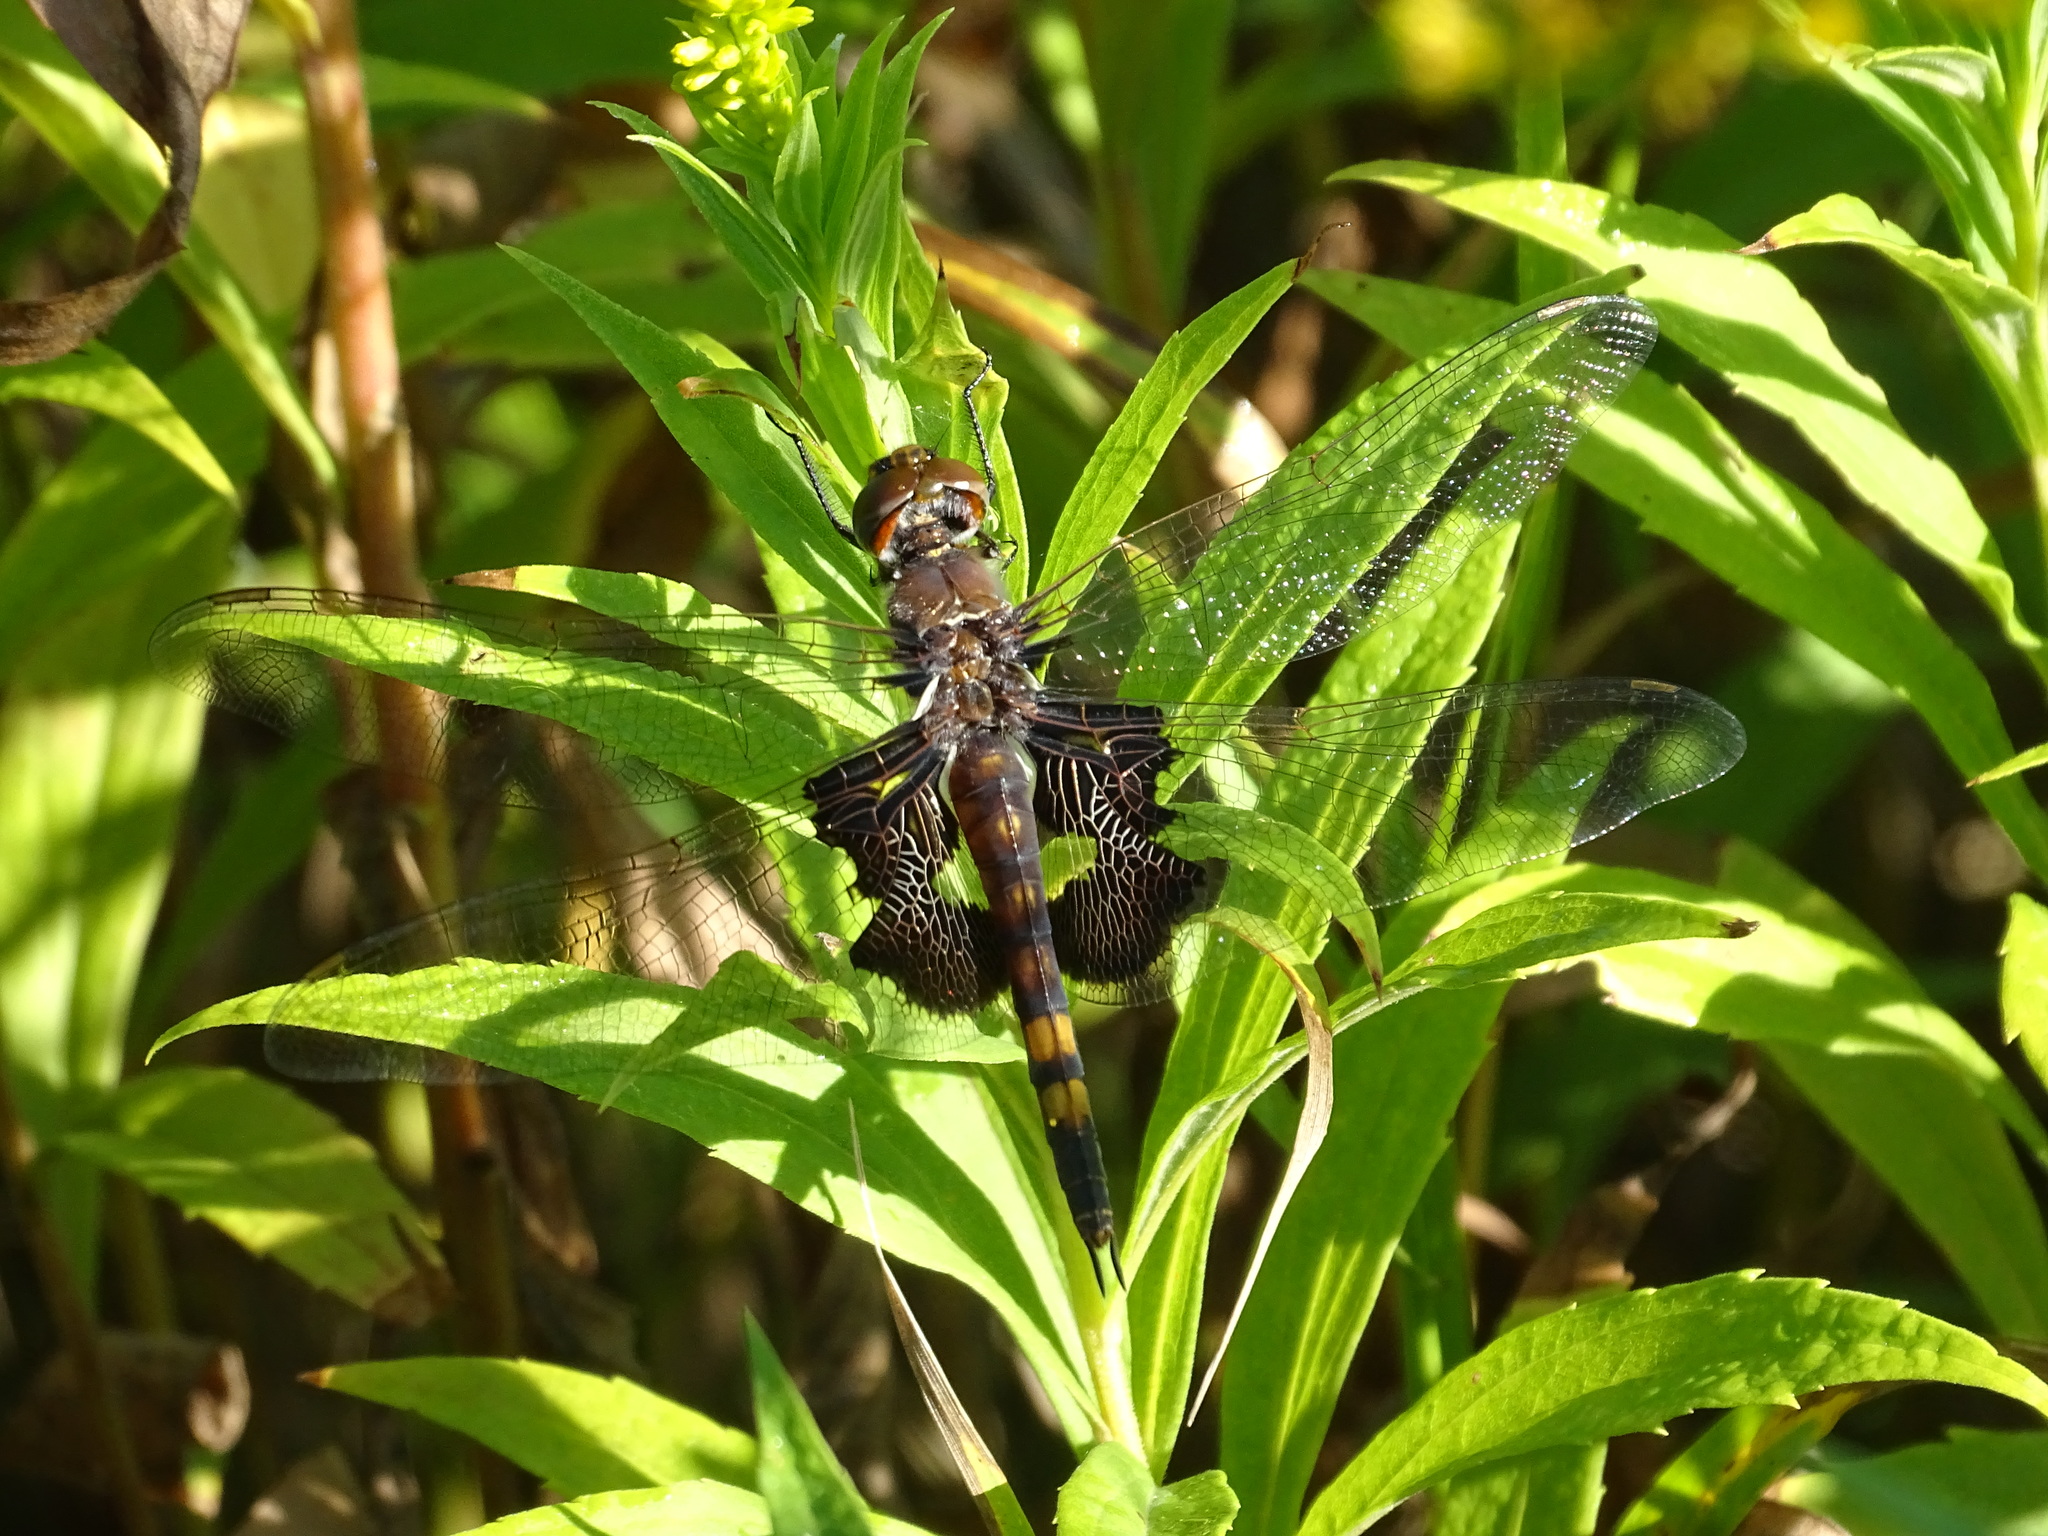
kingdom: Animalia
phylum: Arthropoda
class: Insecta
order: Odonata
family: Libellulidae
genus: Tramea
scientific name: Tramea lacerata
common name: Black saddlebags
